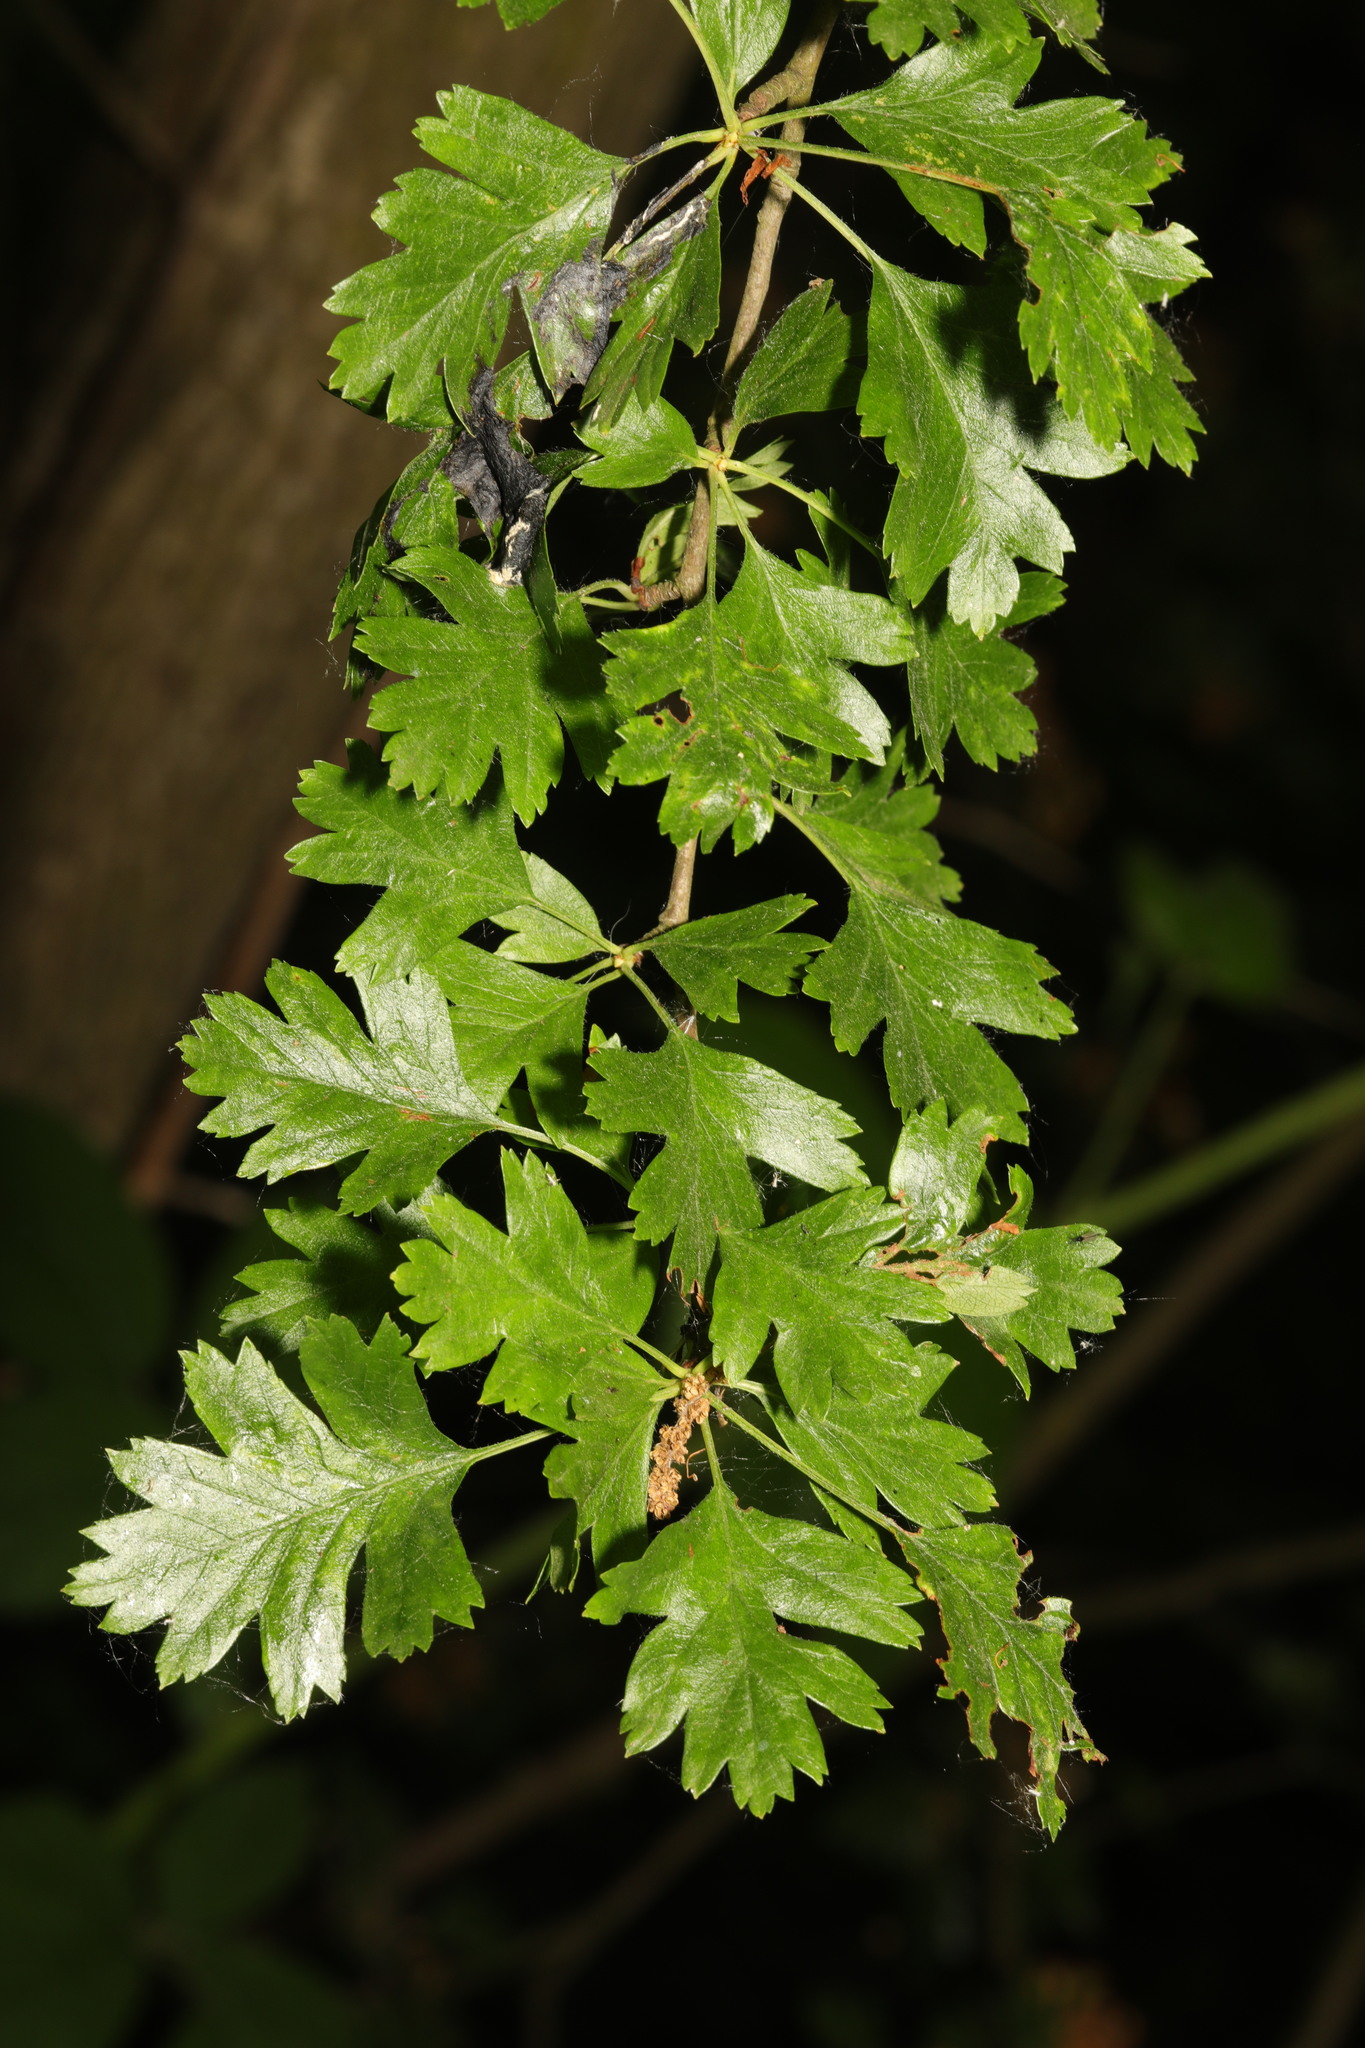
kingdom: Plantae
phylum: Tracheophyta
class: Magnoliopsida
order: Rosales
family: Rosaceae
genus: Crataegus
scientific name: Crataegus monogyna
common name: Hawthorn
